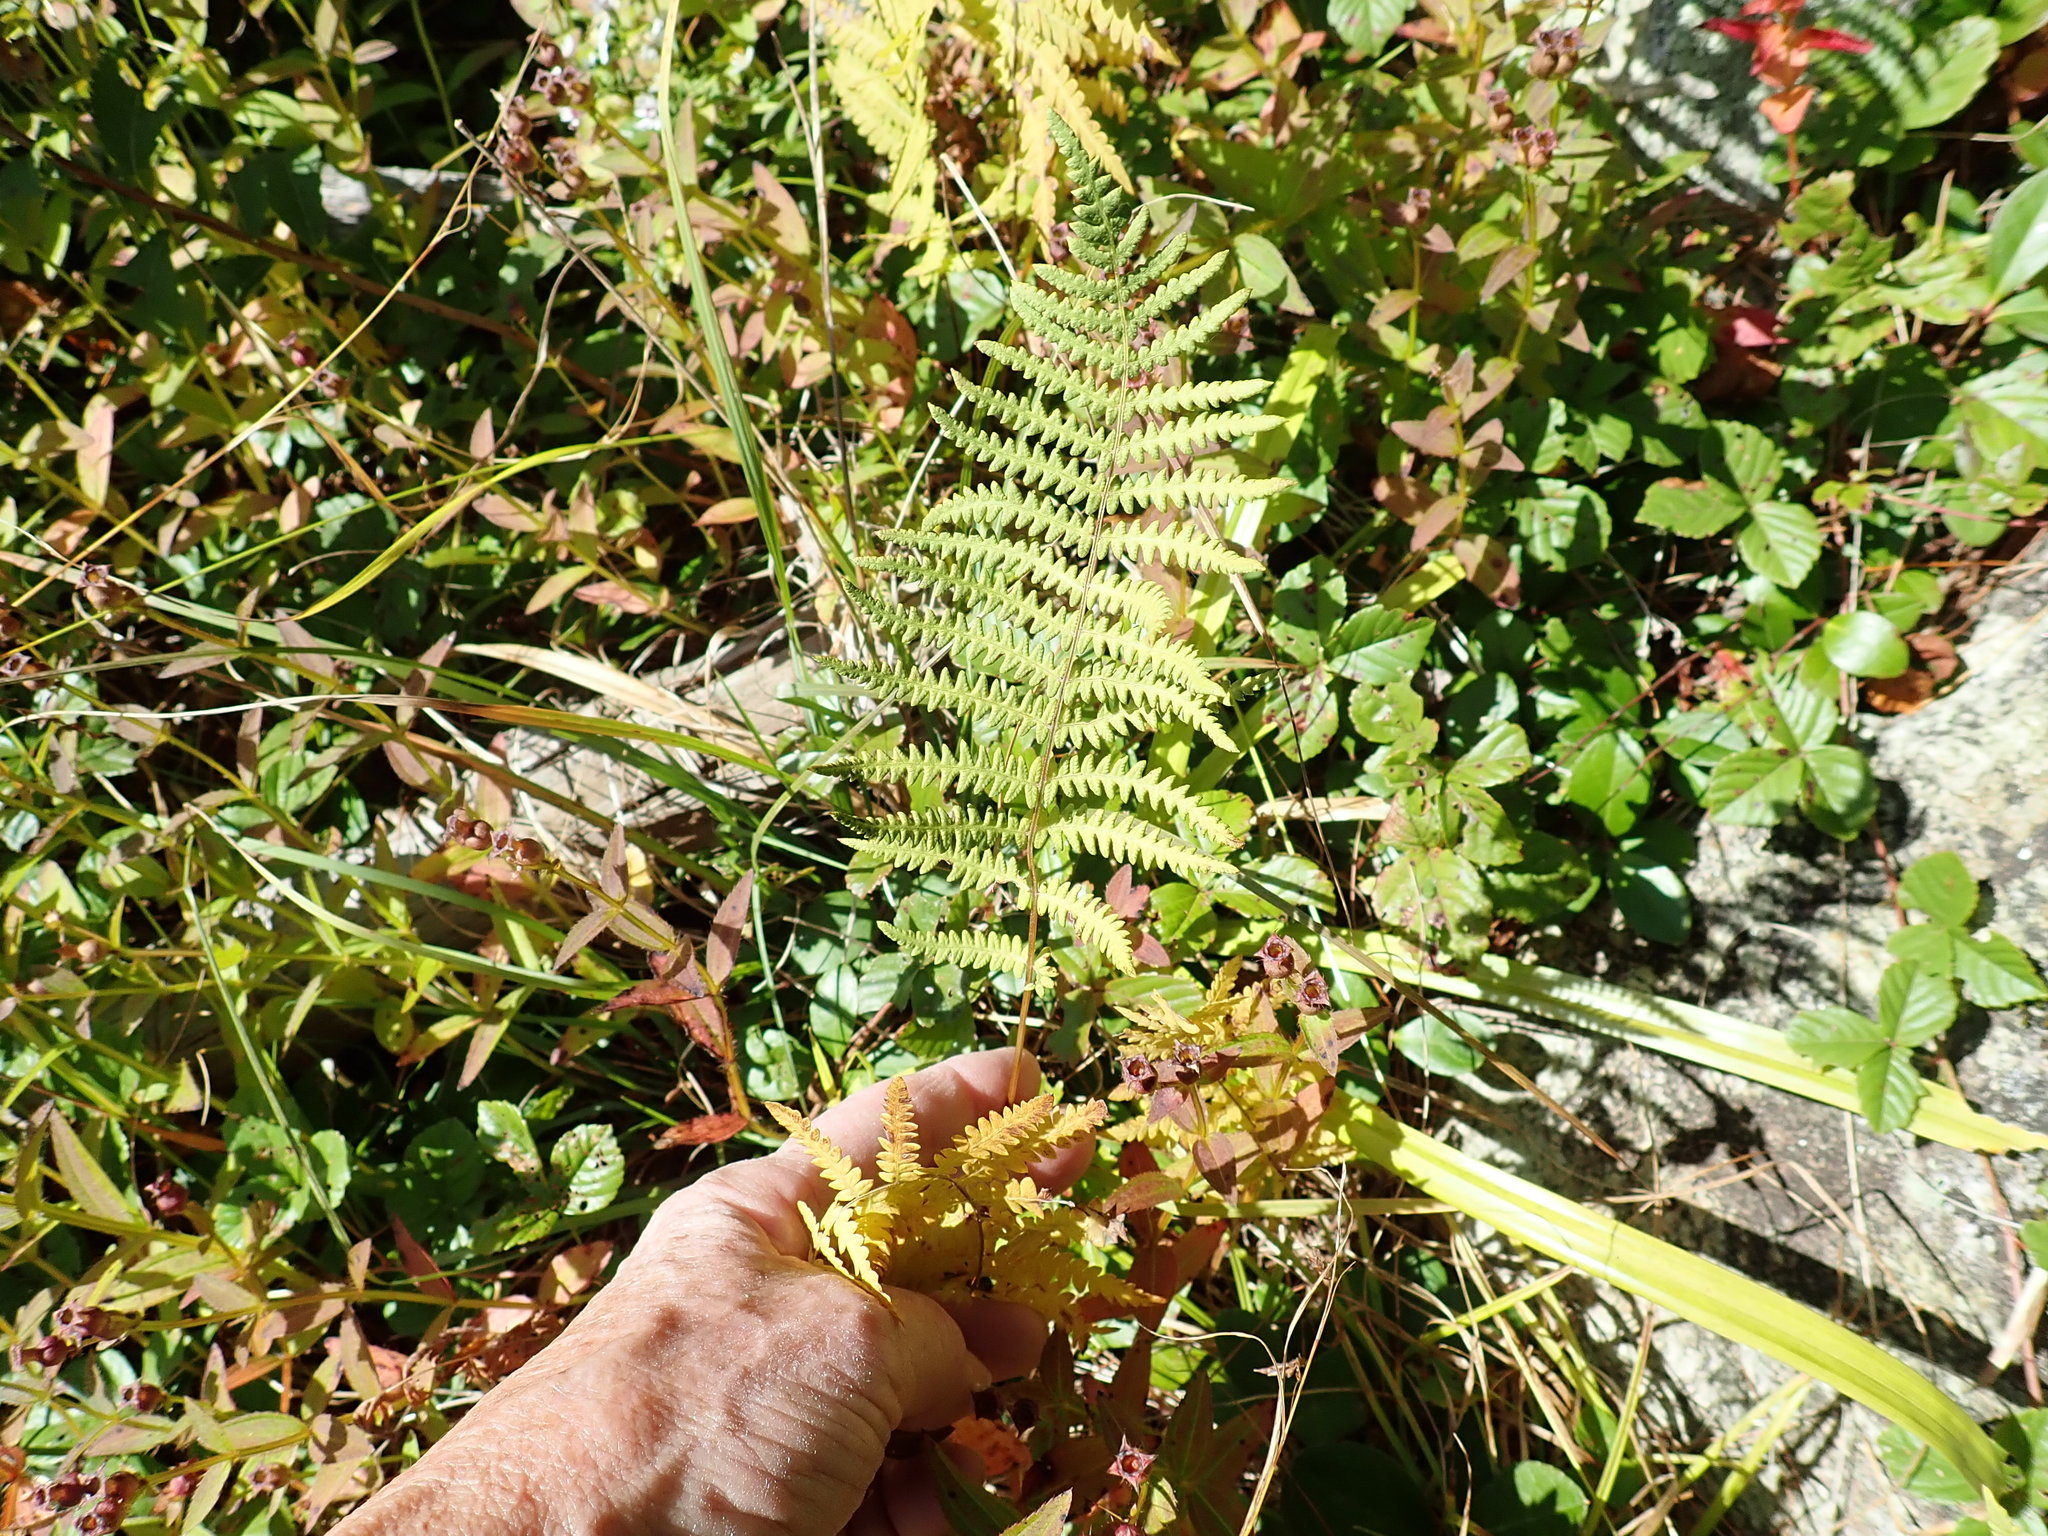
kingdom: Plantae
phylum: Tracheophyta
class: Polypodiopsida
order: Polypodiales
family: Thelypteridaceae
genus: Thelypteris
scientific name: Thelypteris palustris
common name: Marsh fern
